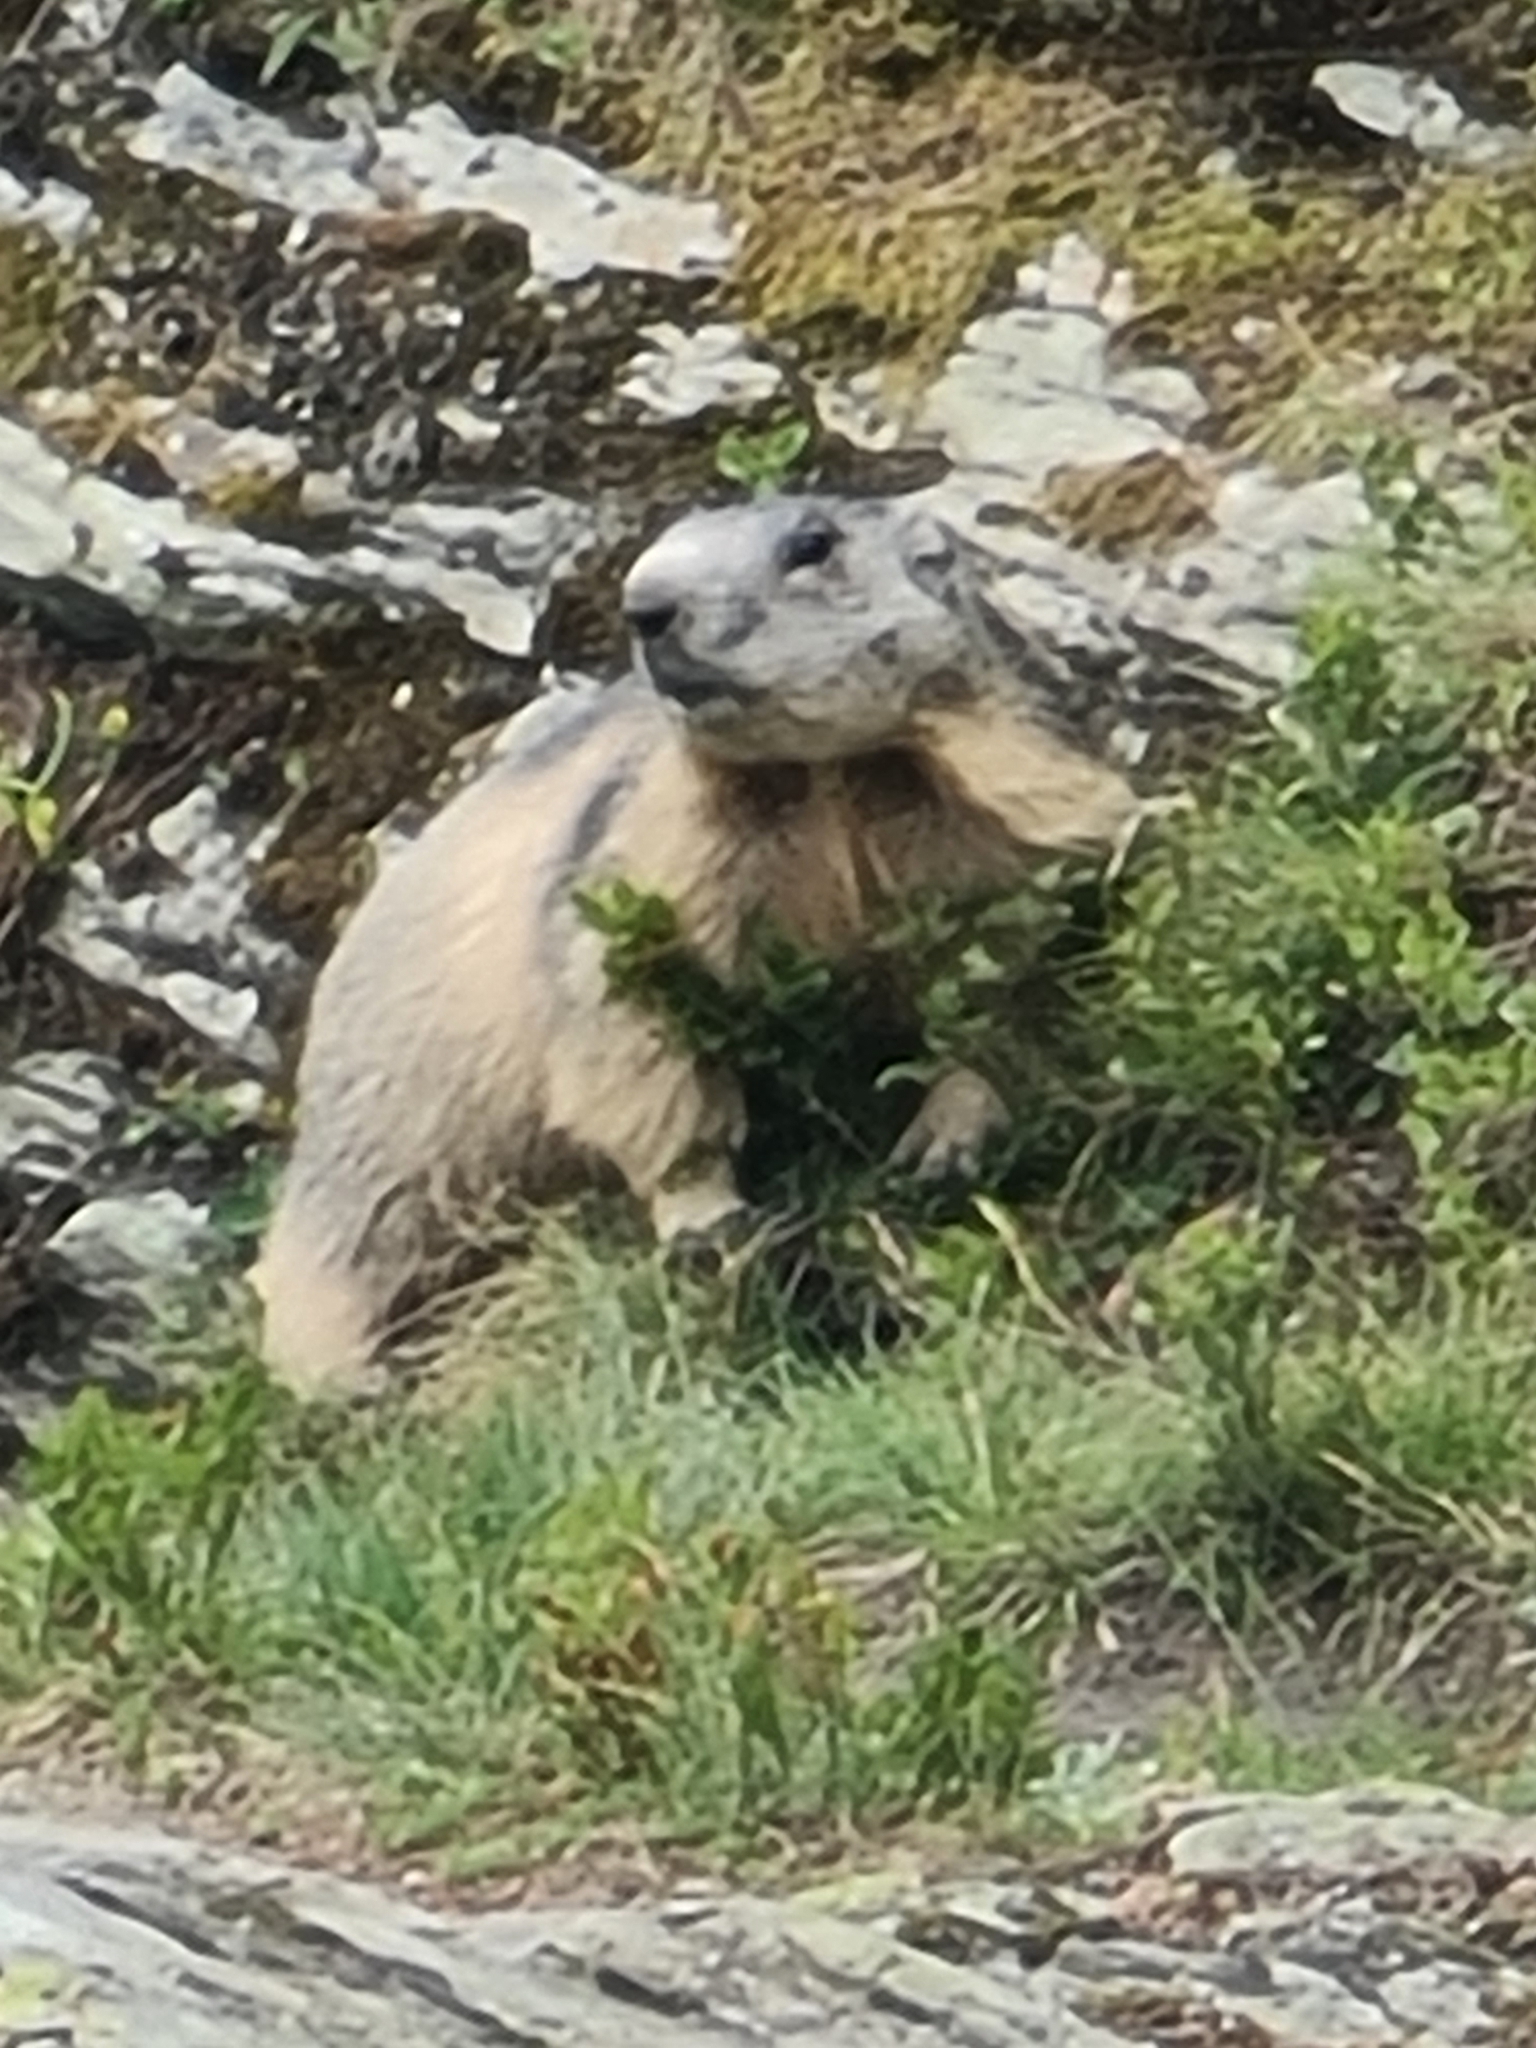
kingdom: Animalia
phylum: Chordata
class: Mammalia
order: Rodentia
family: Sciuridae
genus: Marmota
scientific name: Marmota marmota
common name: Alpine marmot
